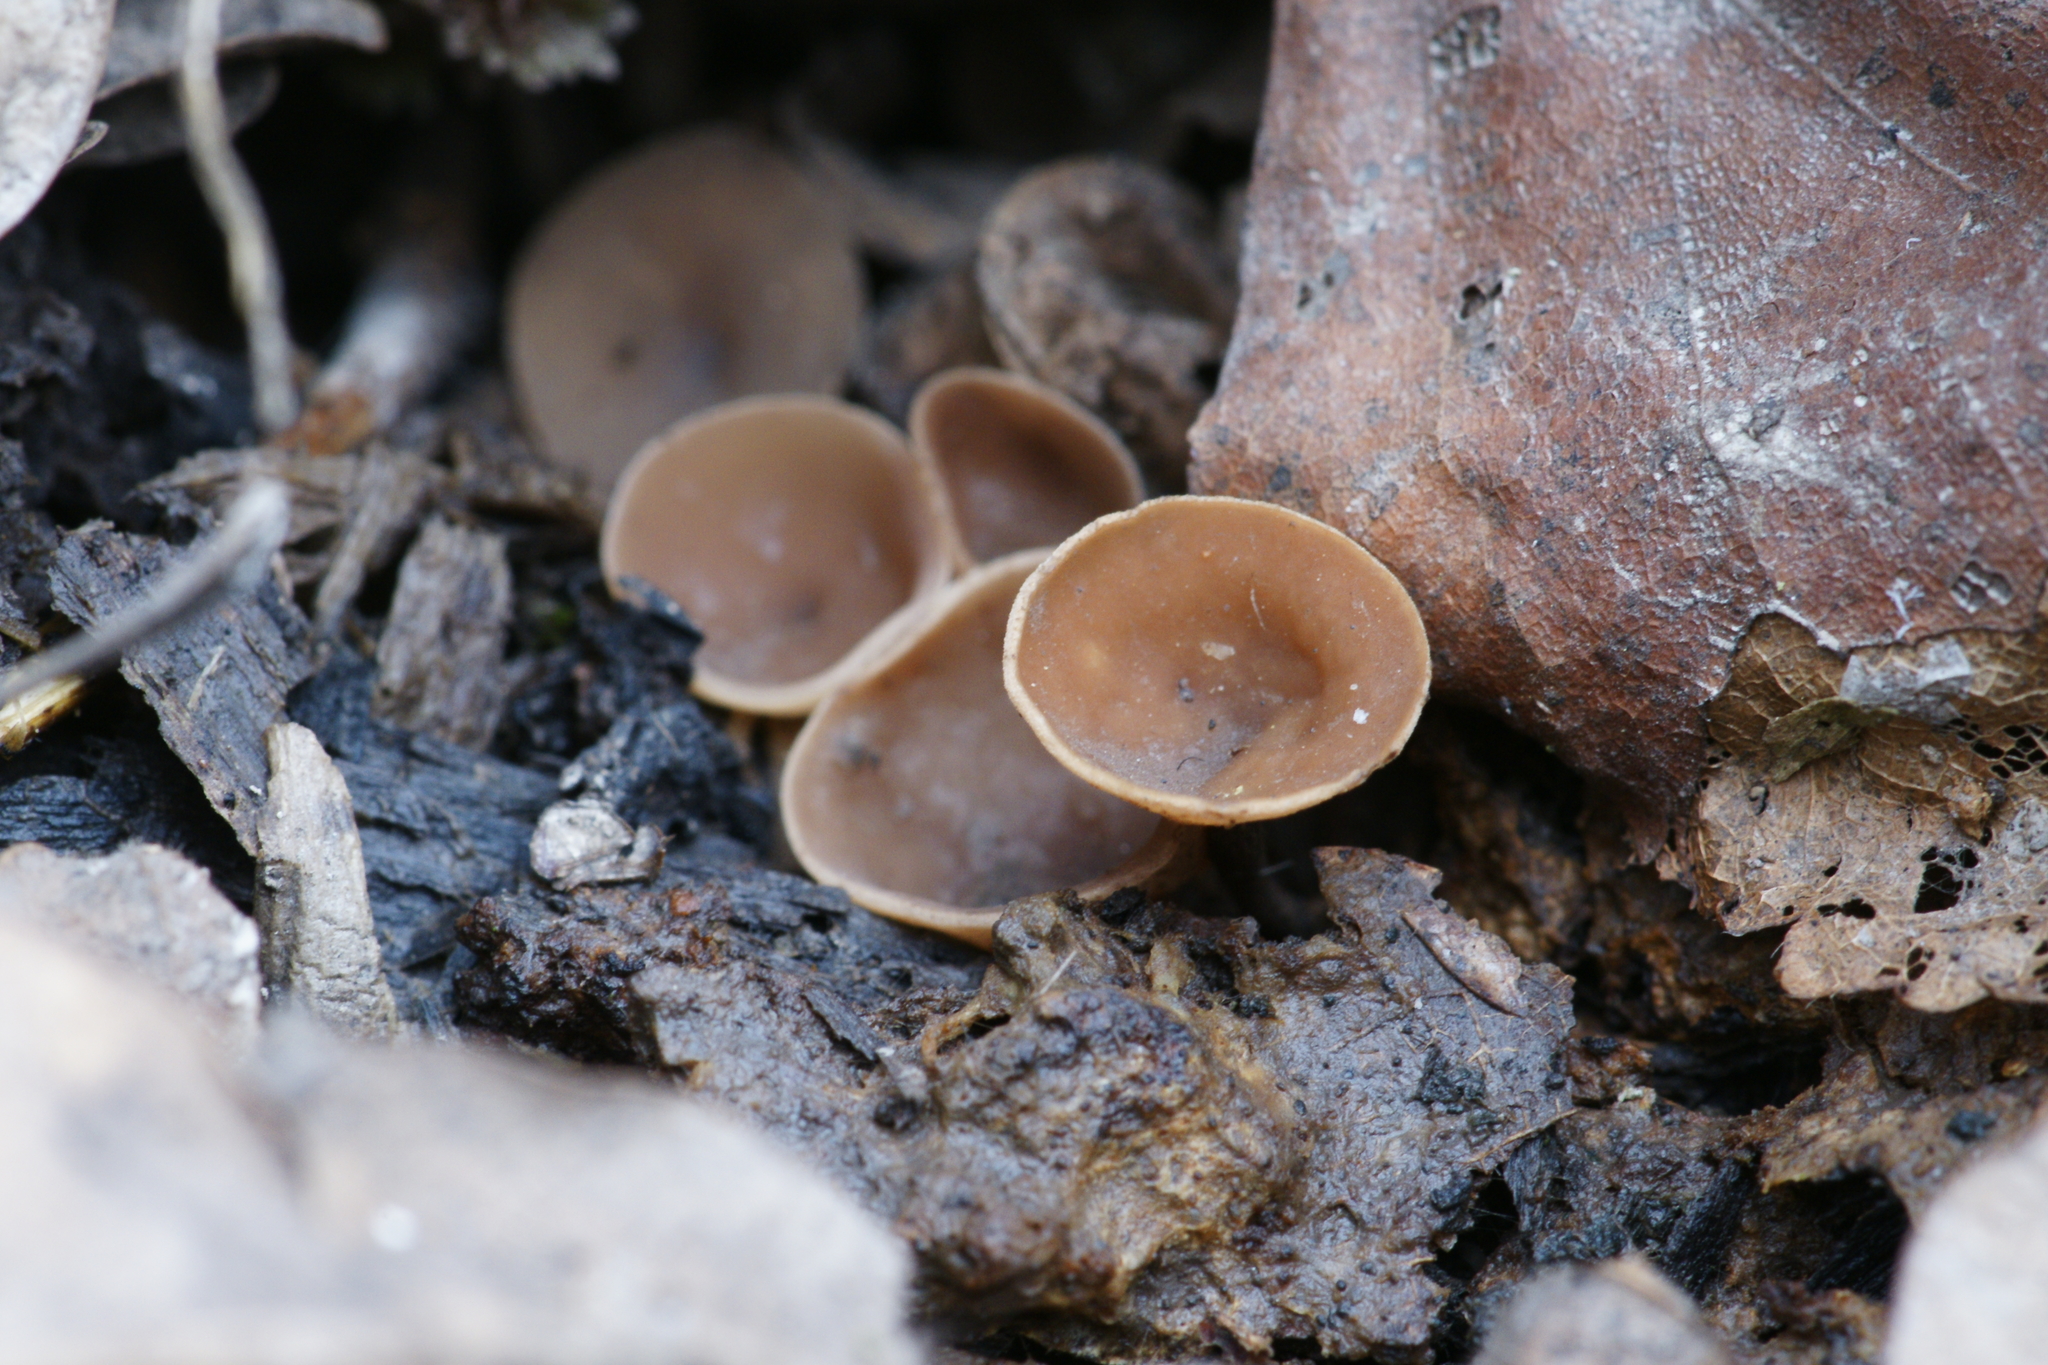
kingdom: Fungi
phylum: Ascomycota
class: Leotiomycetes
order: Helotiales
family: Sclerotiniaceae
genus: Dumontinia
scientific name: Dumontinia tuberosa
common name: Anemone cup
